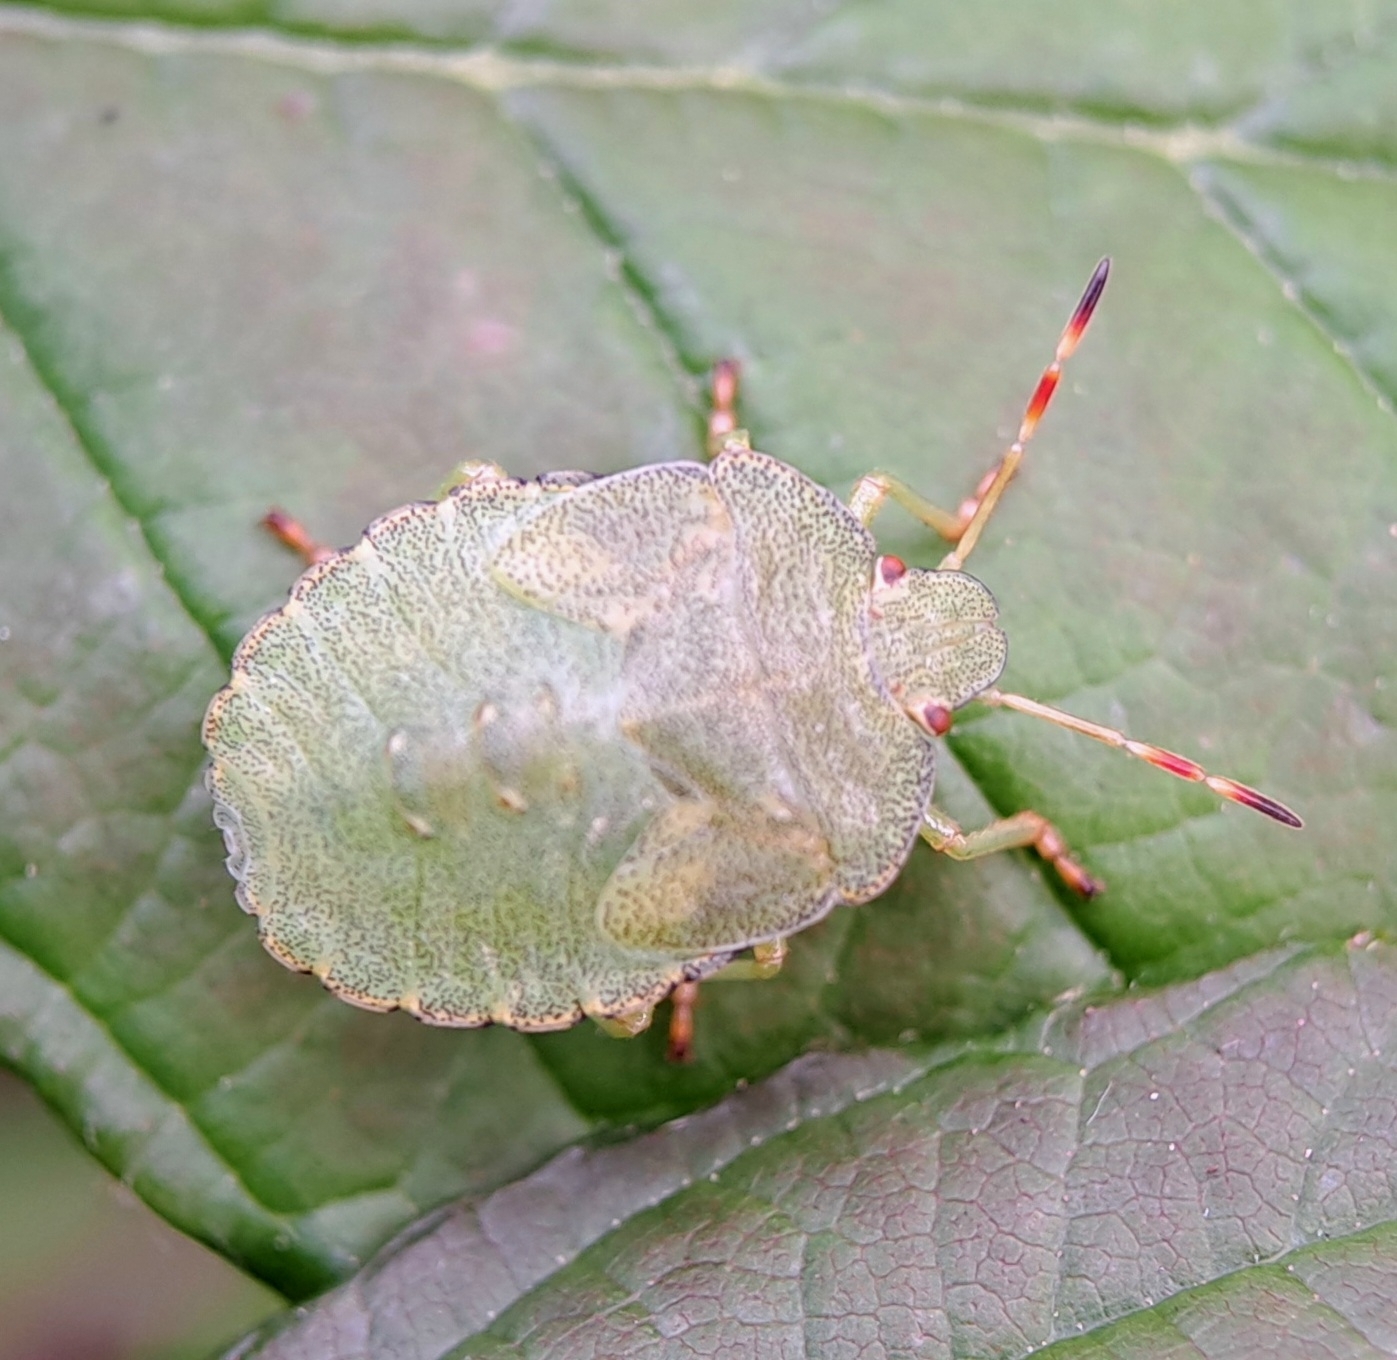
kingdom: Animalia
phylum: Arthropoda
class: Insecta
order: Hemiptera
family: Pentatomidae
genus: Palomena
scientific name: Palomena prasina
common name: Green shieldbug
